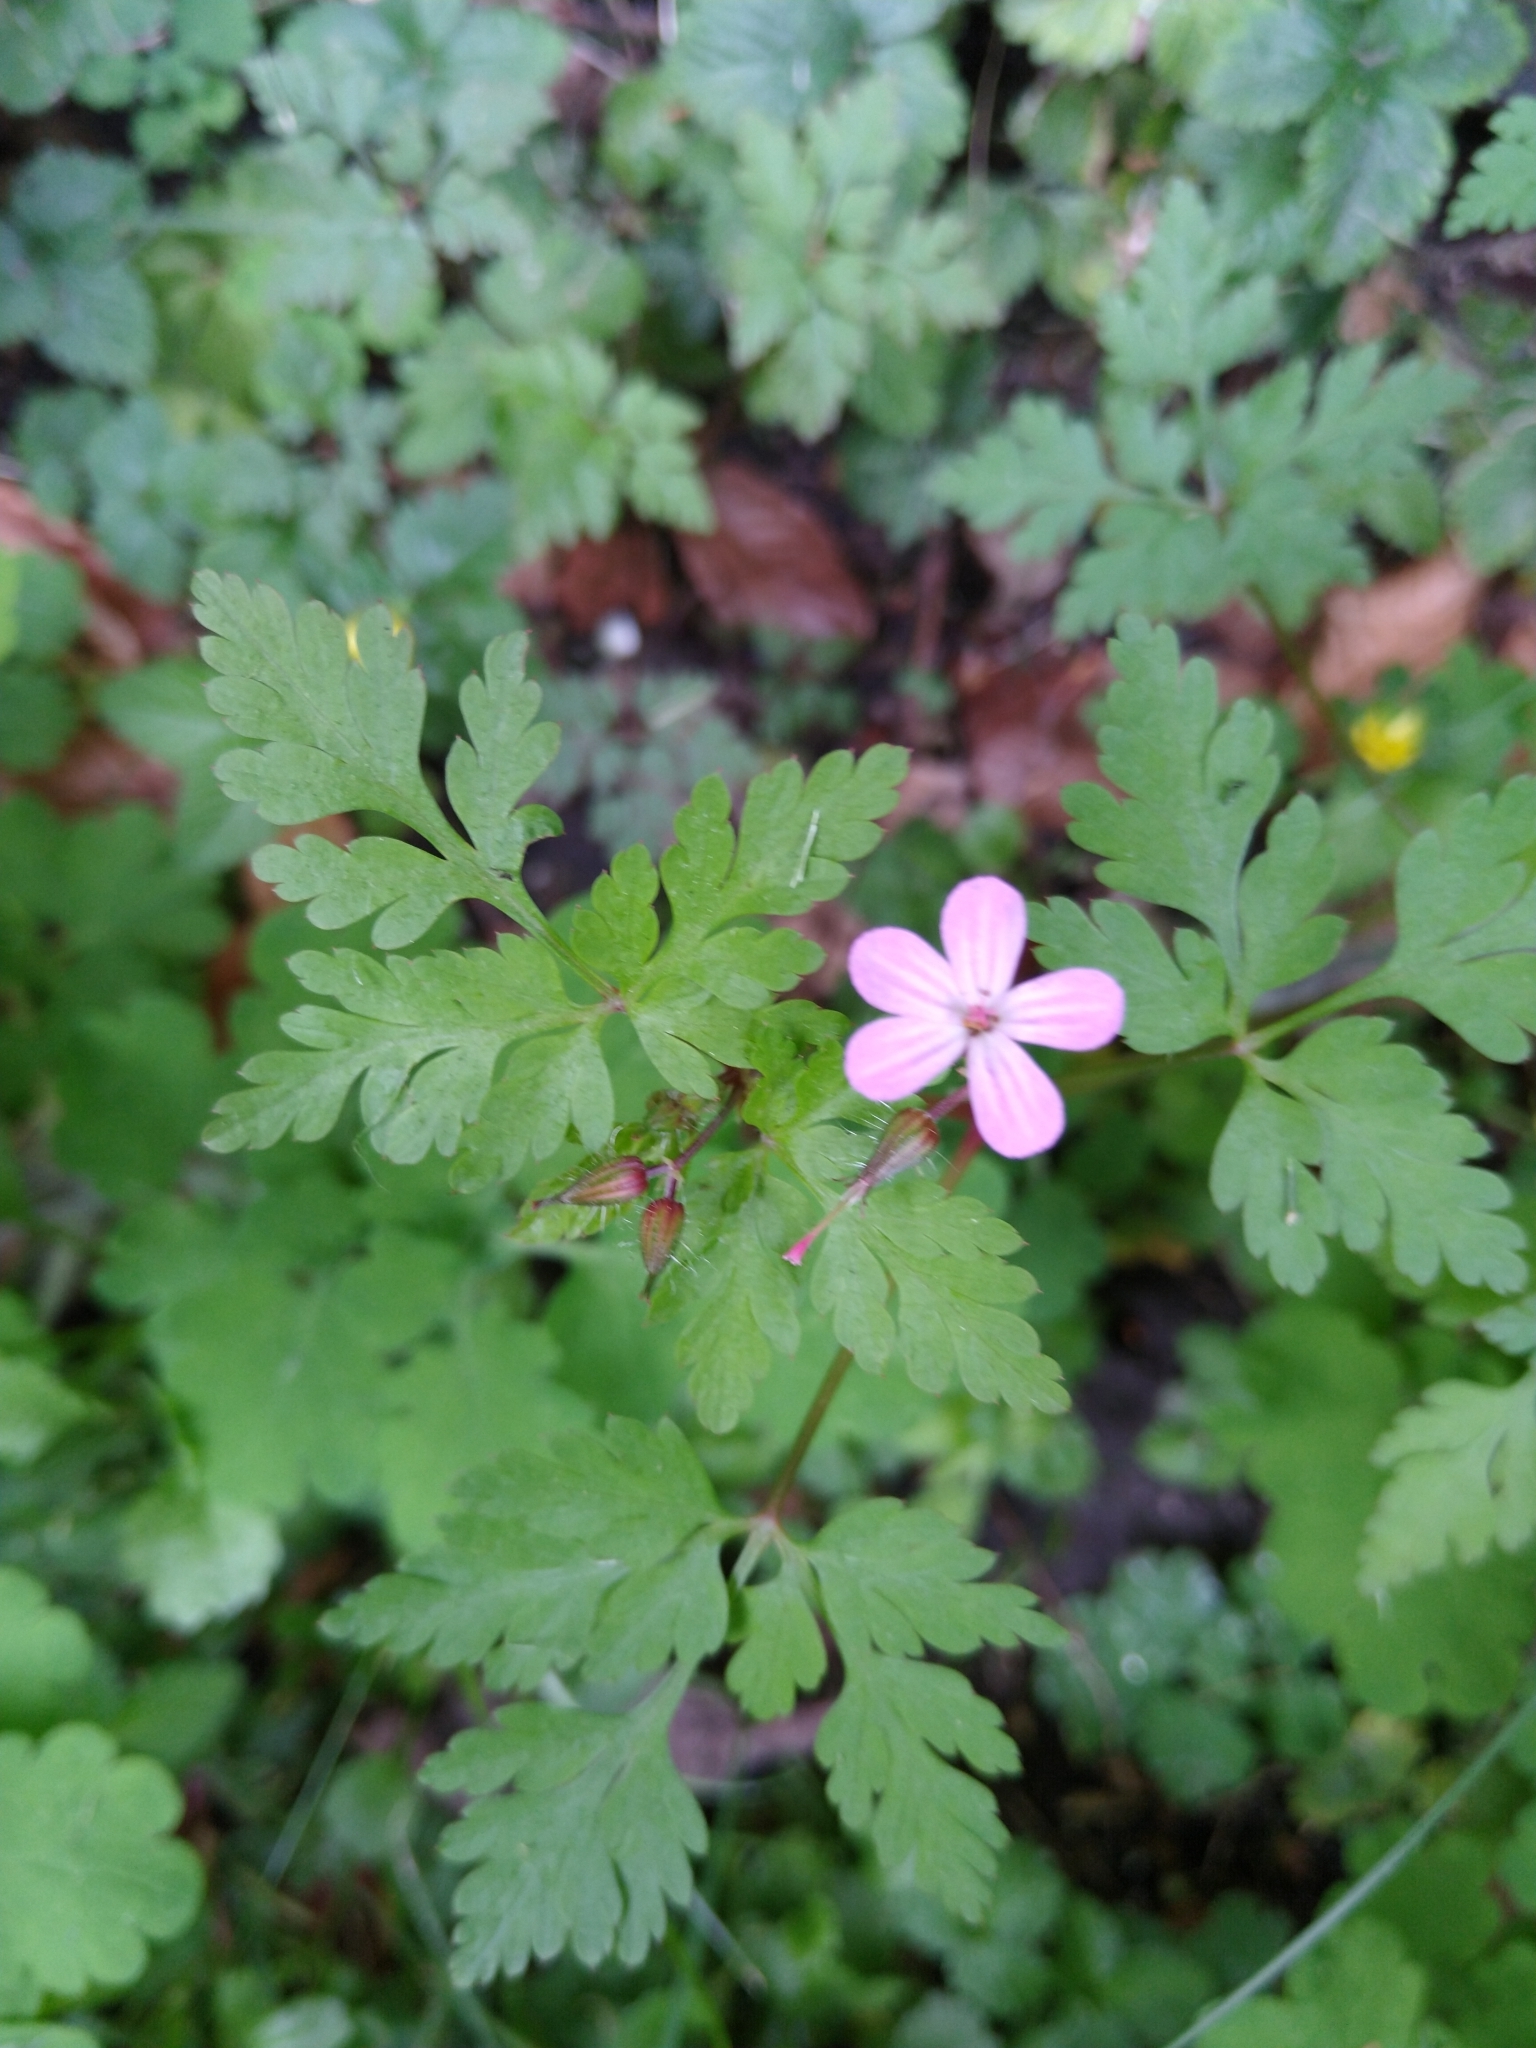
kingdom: Plantae
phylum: Tracheophyta
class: Magnoliopsida
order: Geraniales
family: Geraniaceae
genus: Geranium
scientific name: Geranium robertianum
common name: Herb-robert
